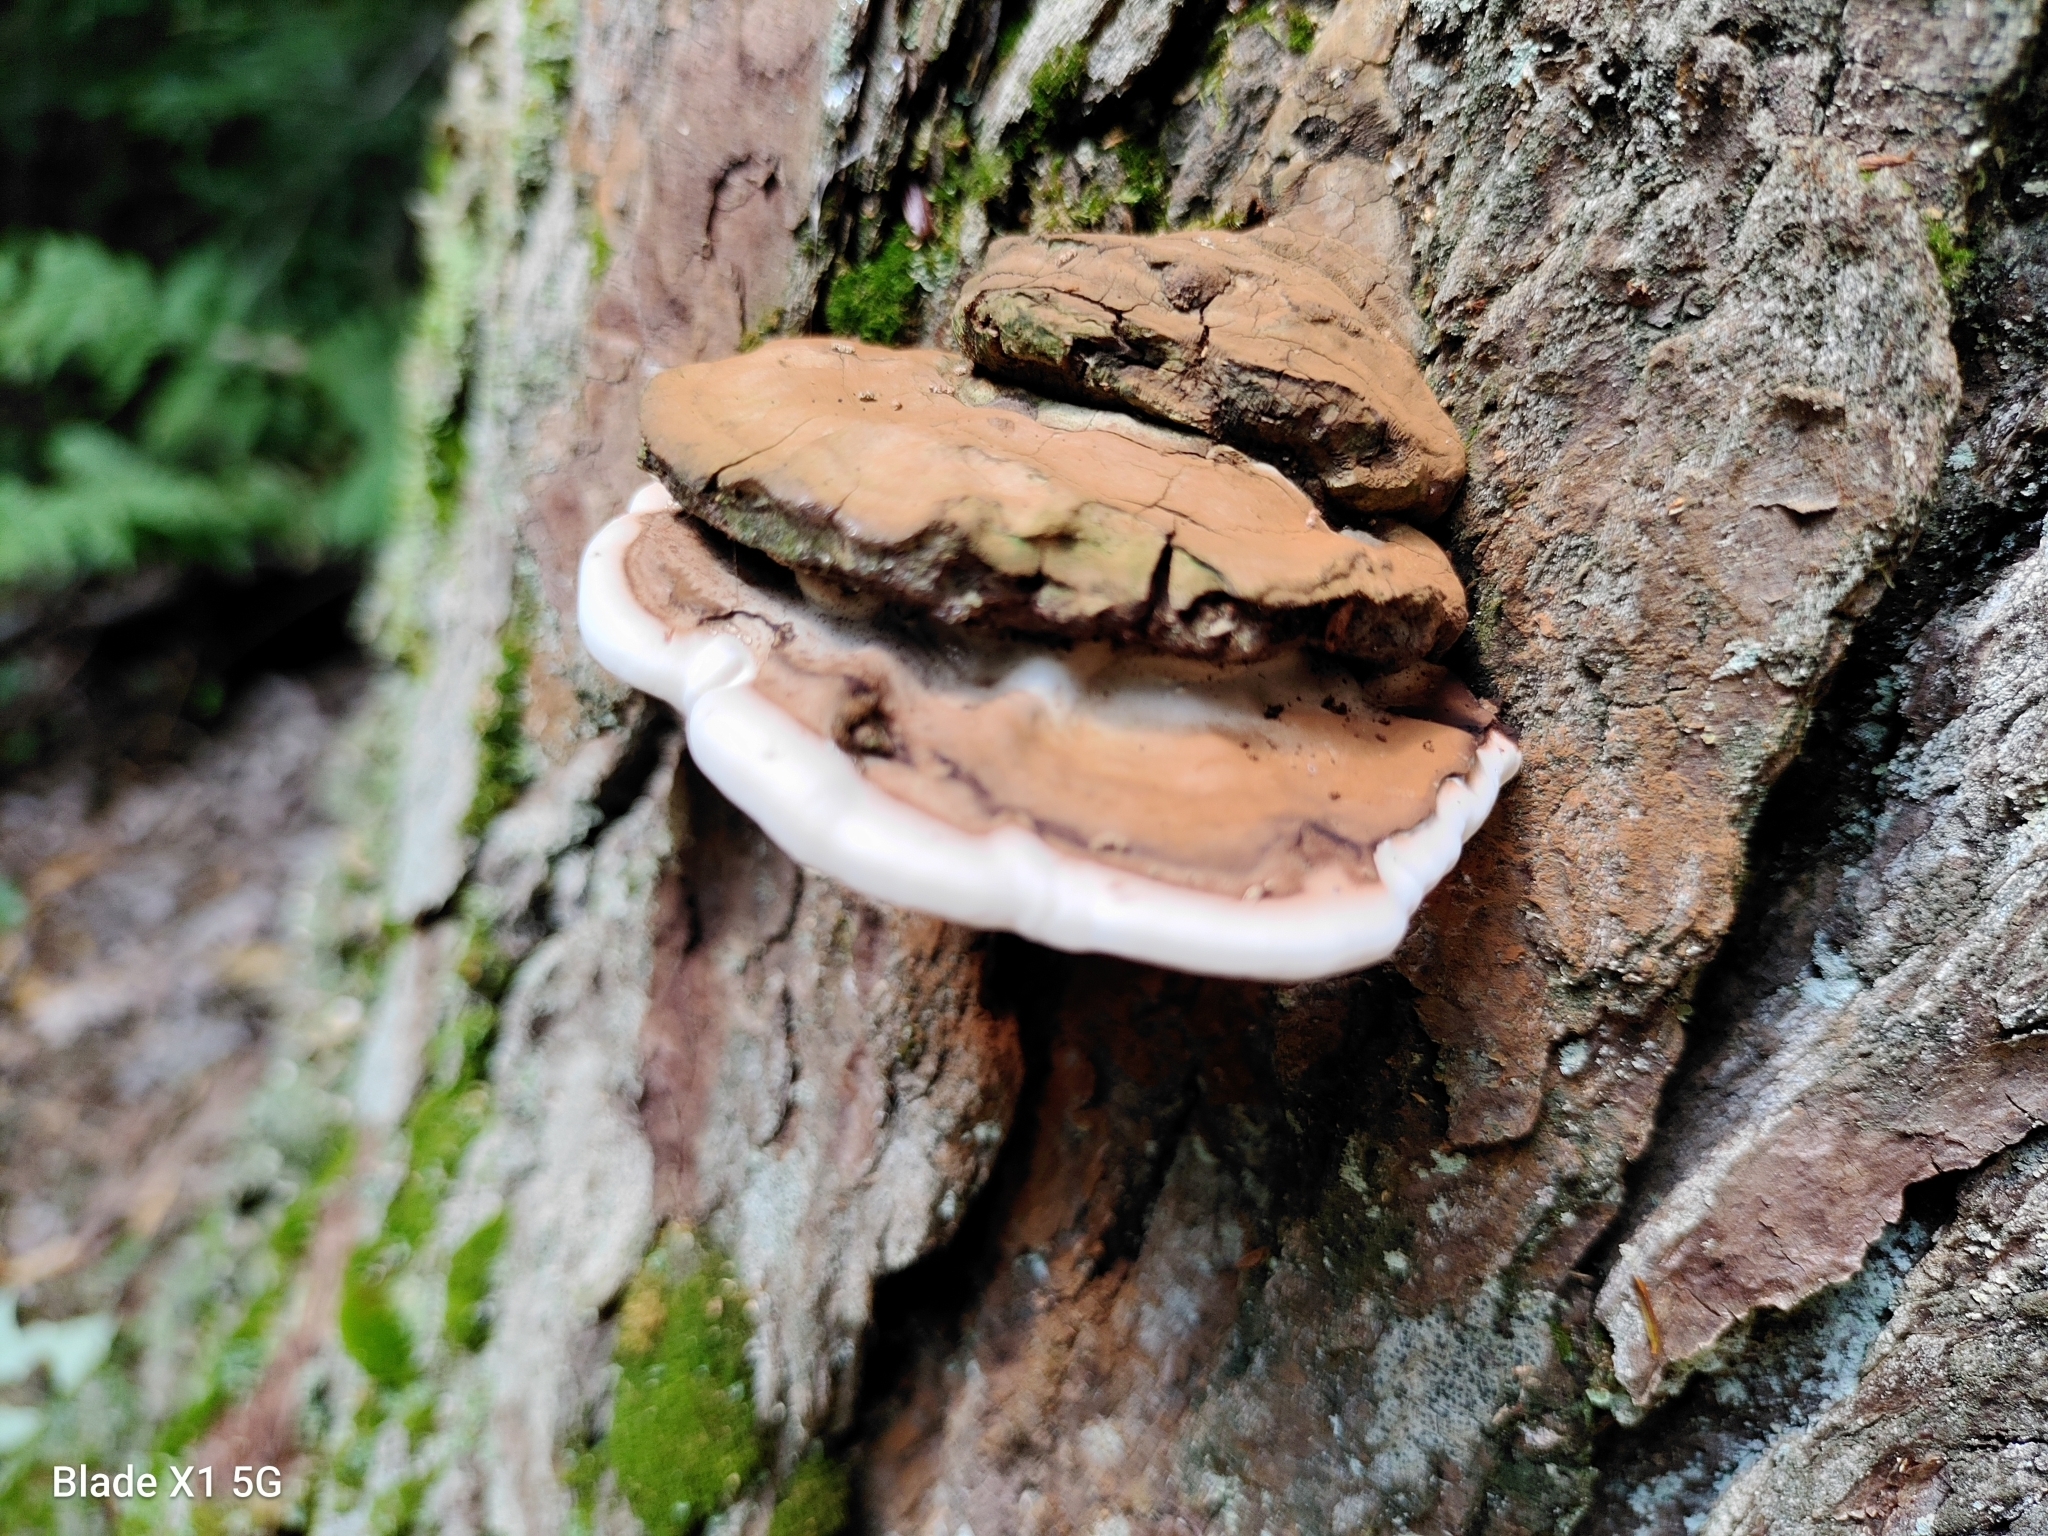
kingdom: Fungi
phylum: Basidiomycota
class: Agaricomycetes
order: Polyporales
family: Polyporaceae
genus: Ganoderma
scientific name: Ganoderma applanatum
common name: Artist's bracket
